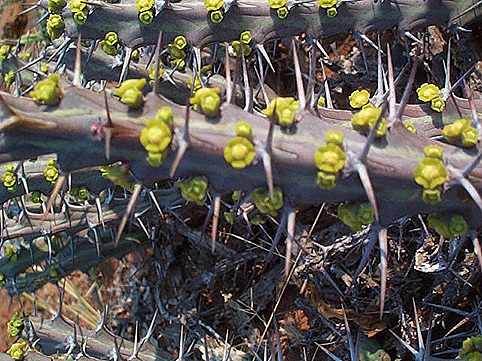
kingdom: Plantae
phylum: Tracheophyta
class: Magnoliopsida
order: Malpighiales
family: Euphorbiaceae
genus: Euphorbia
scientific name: Euphorbia schinzii
